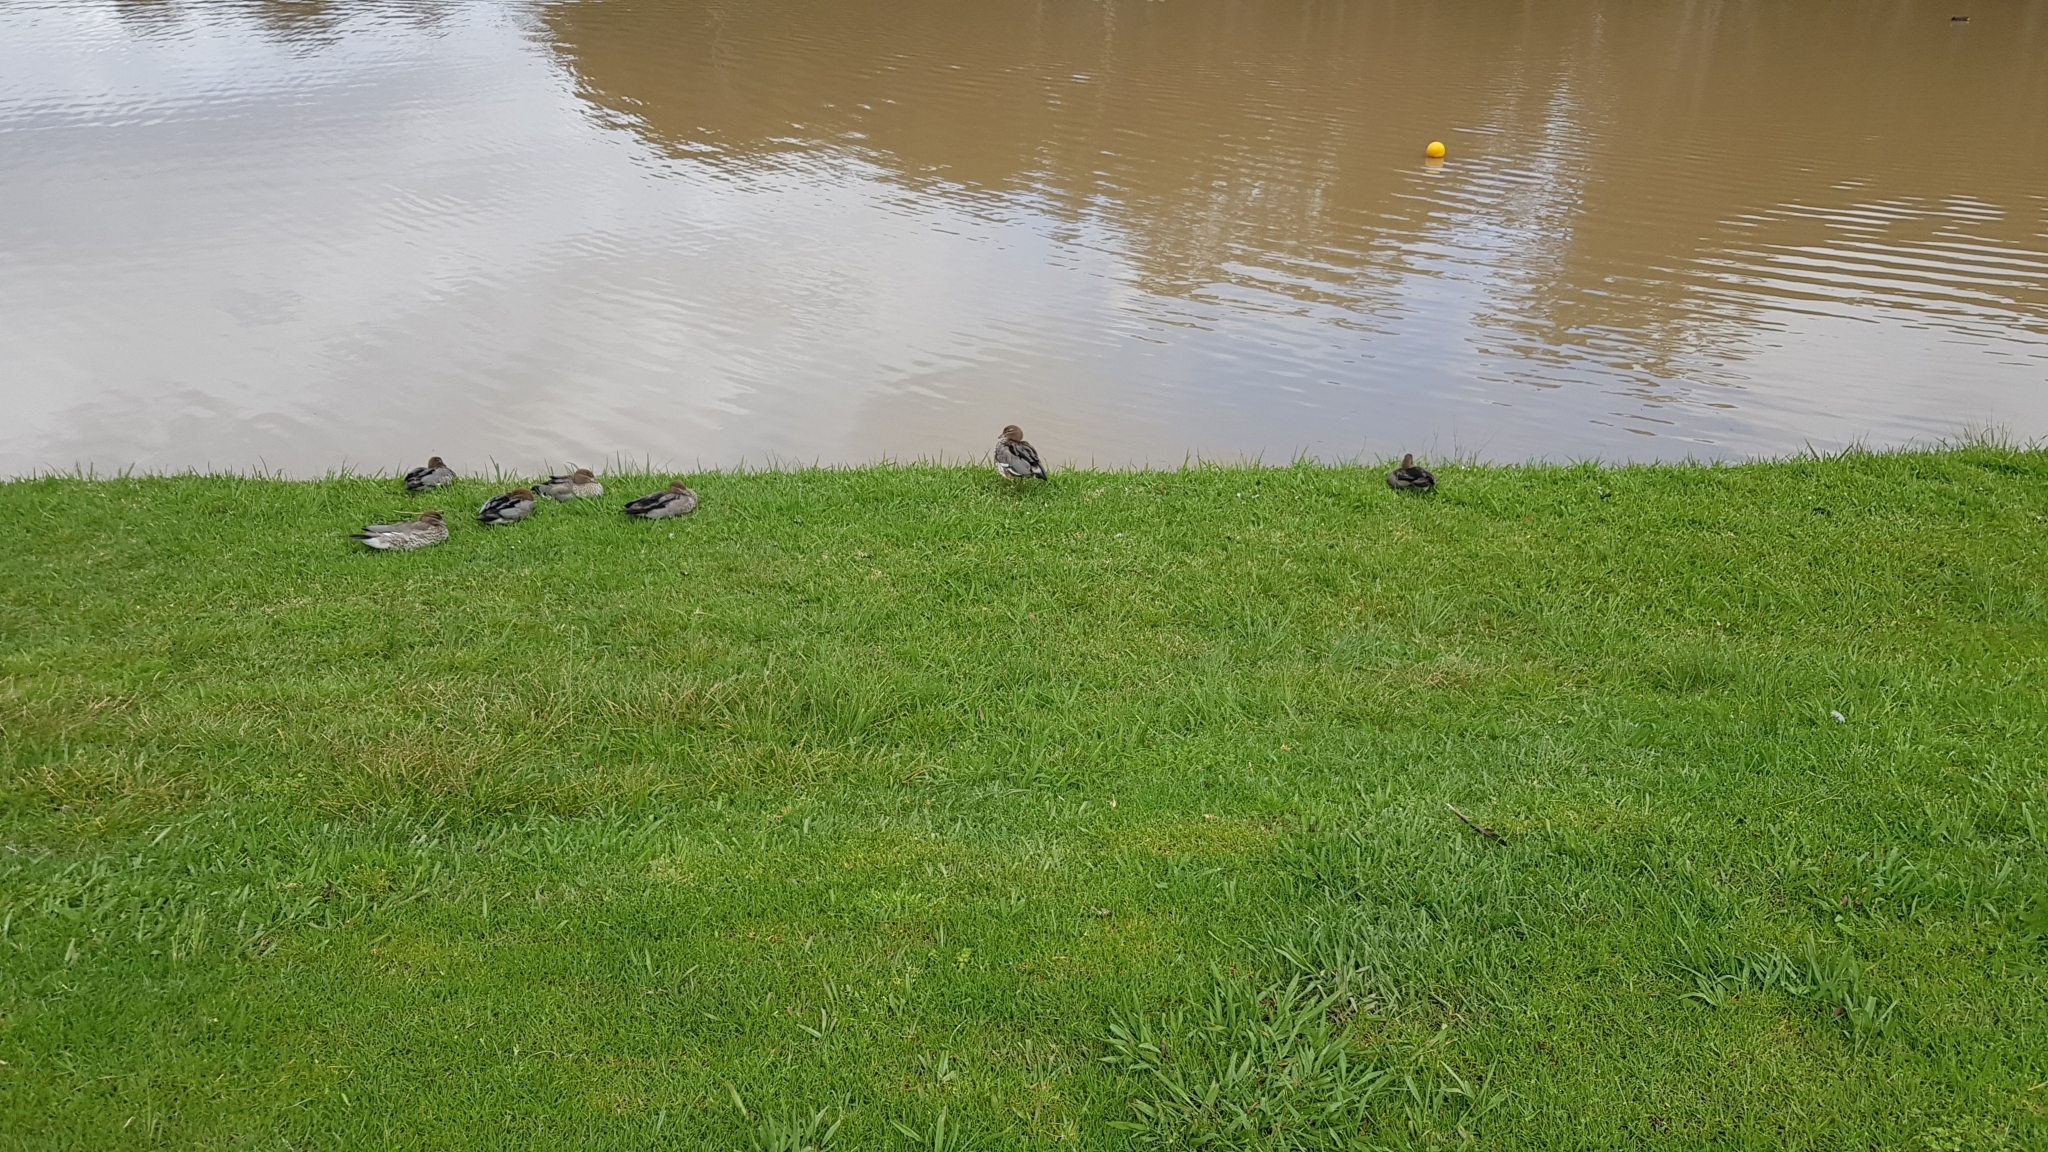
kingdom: Animalia
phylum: Chordata
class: Aves
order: Anseriformes
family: Anatidae
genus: Chenonetta
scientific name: Chenonetta jubata
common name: Maned duck
